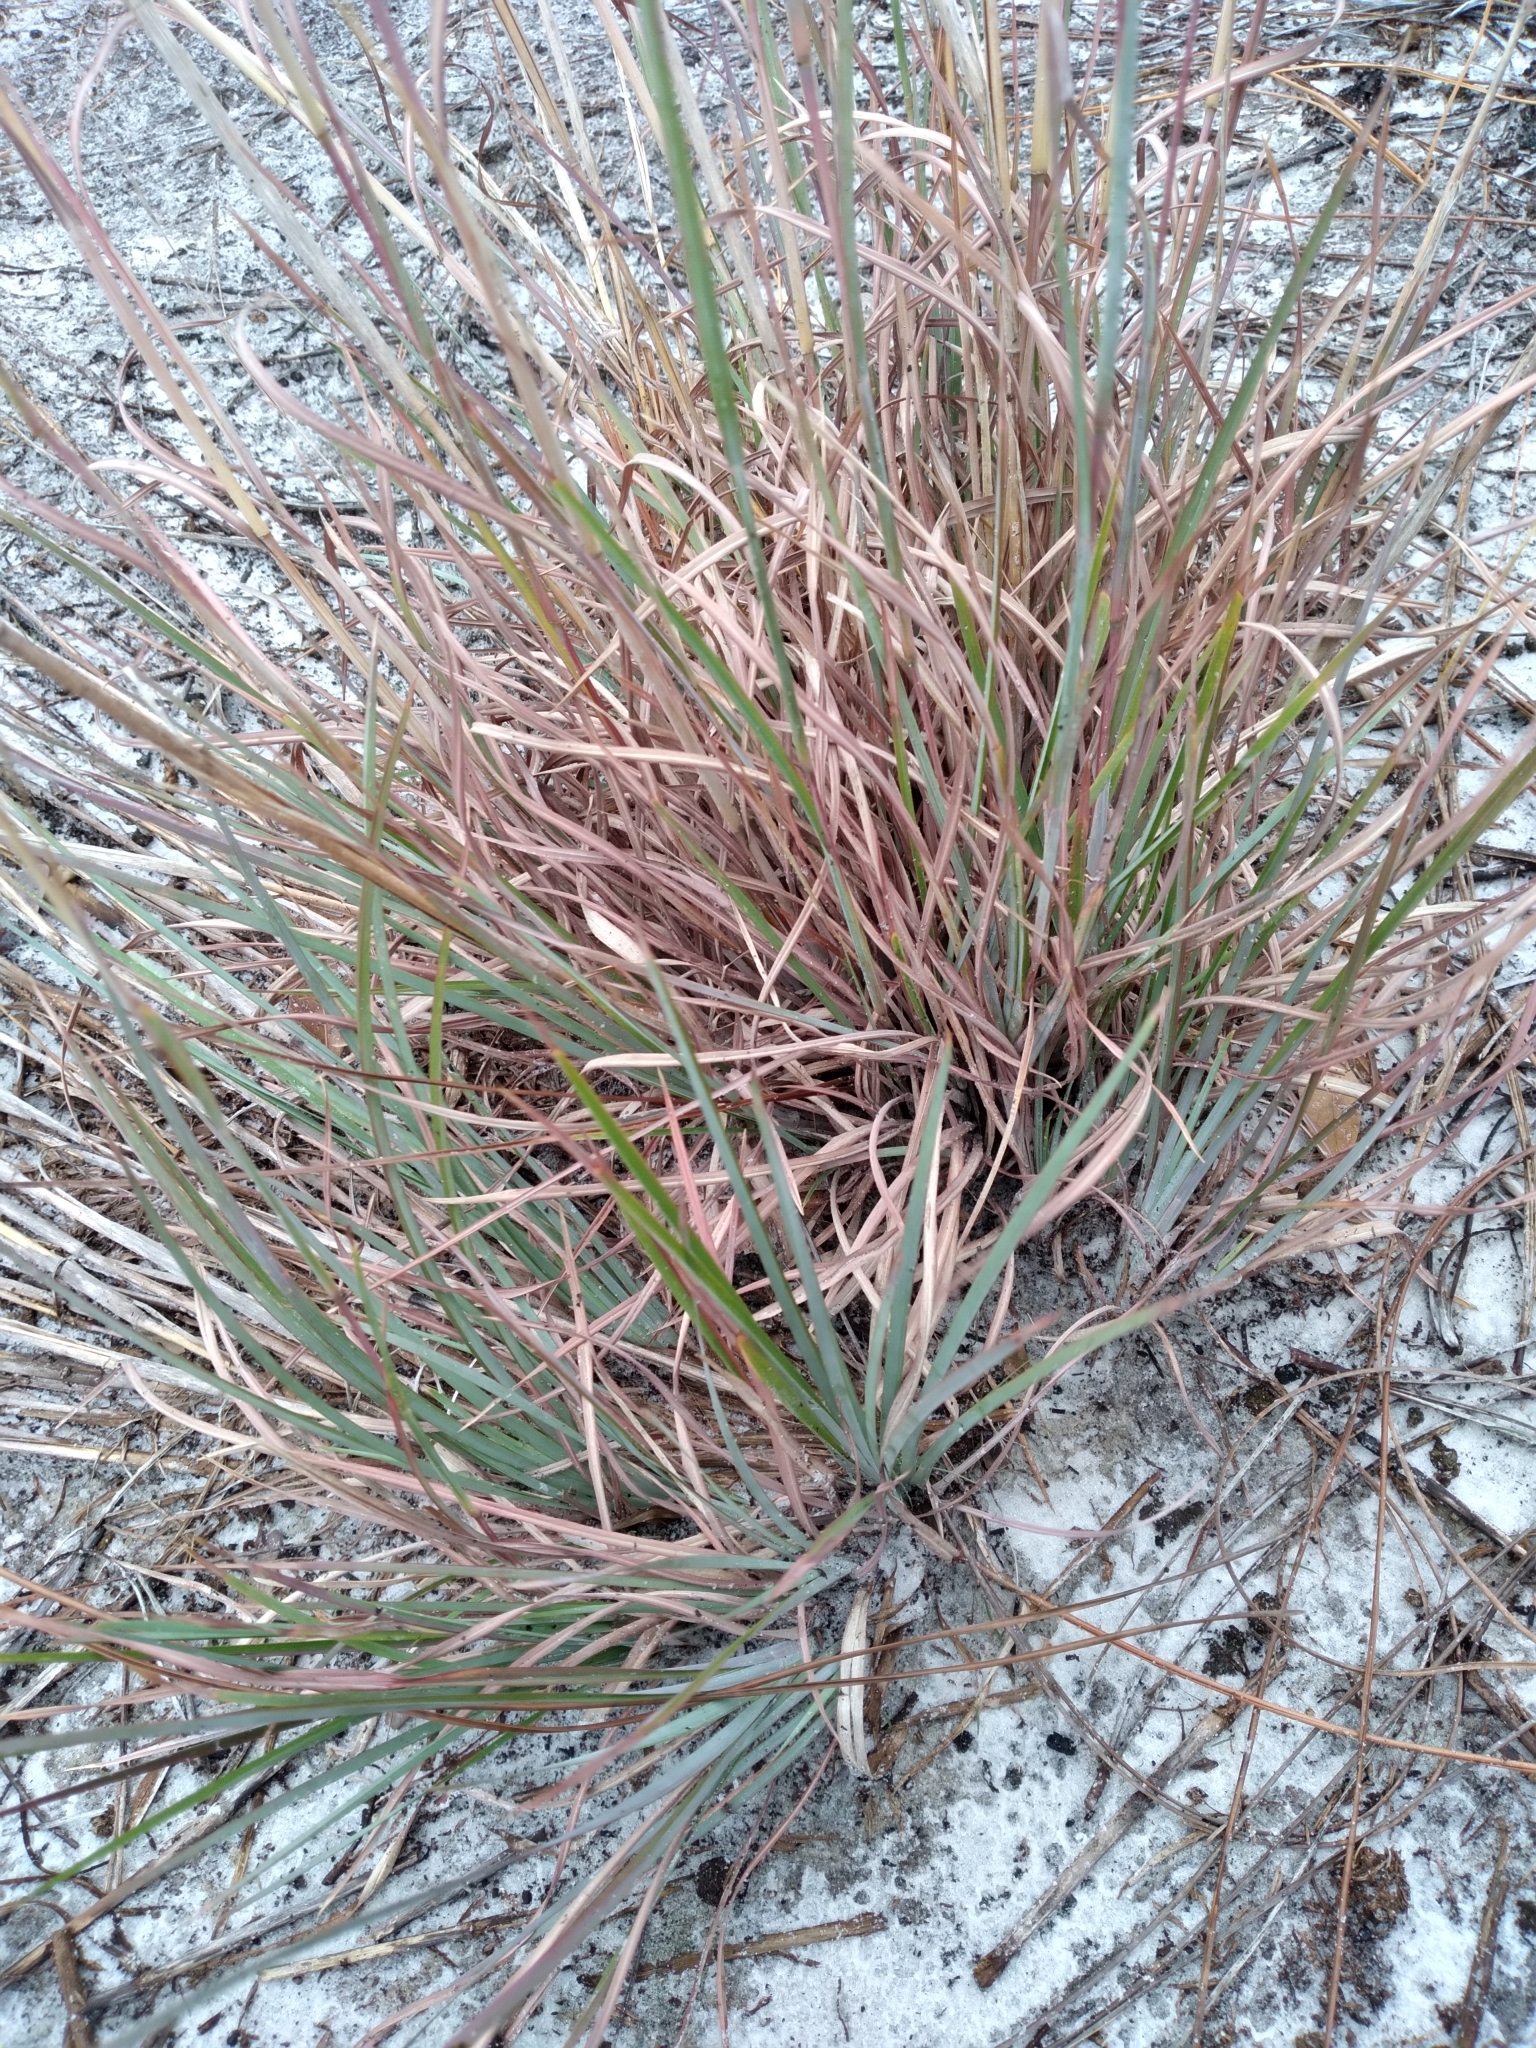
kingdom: Plantae
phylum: Tracheophyta
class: Liliopsida
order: Poales
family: Poaceae
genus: Andropogon
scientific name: Andropogon capillipes
